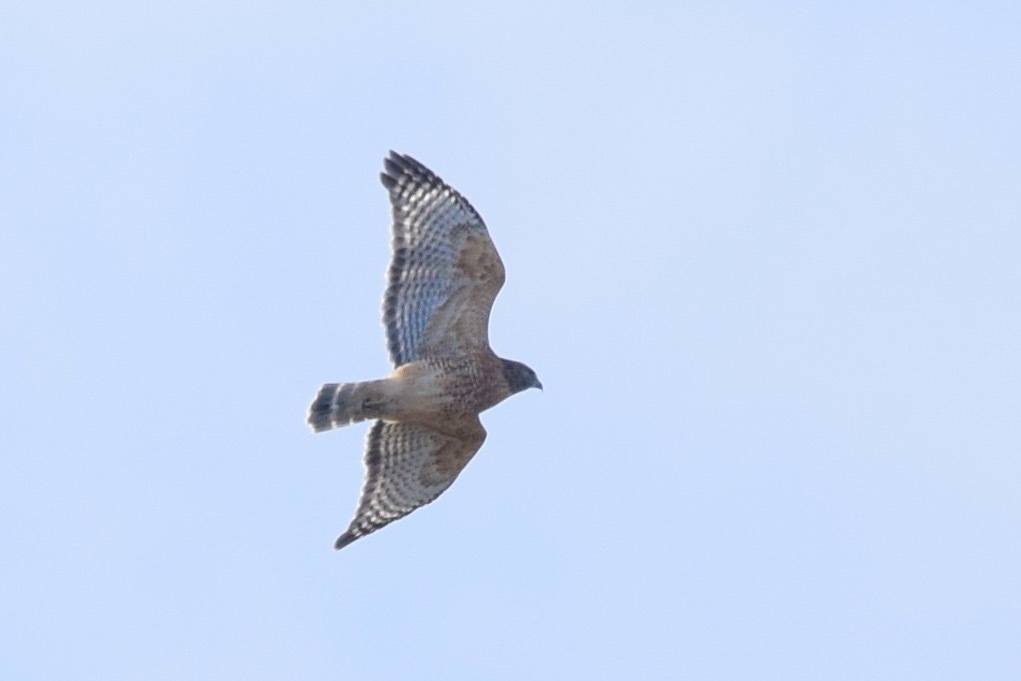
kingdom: Animalia
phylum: Chordata
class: Aves
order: Accipitriformes
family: Accipitridae
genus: Buteo
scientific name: Buteo lineatus
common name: Red-shouldered hawk
